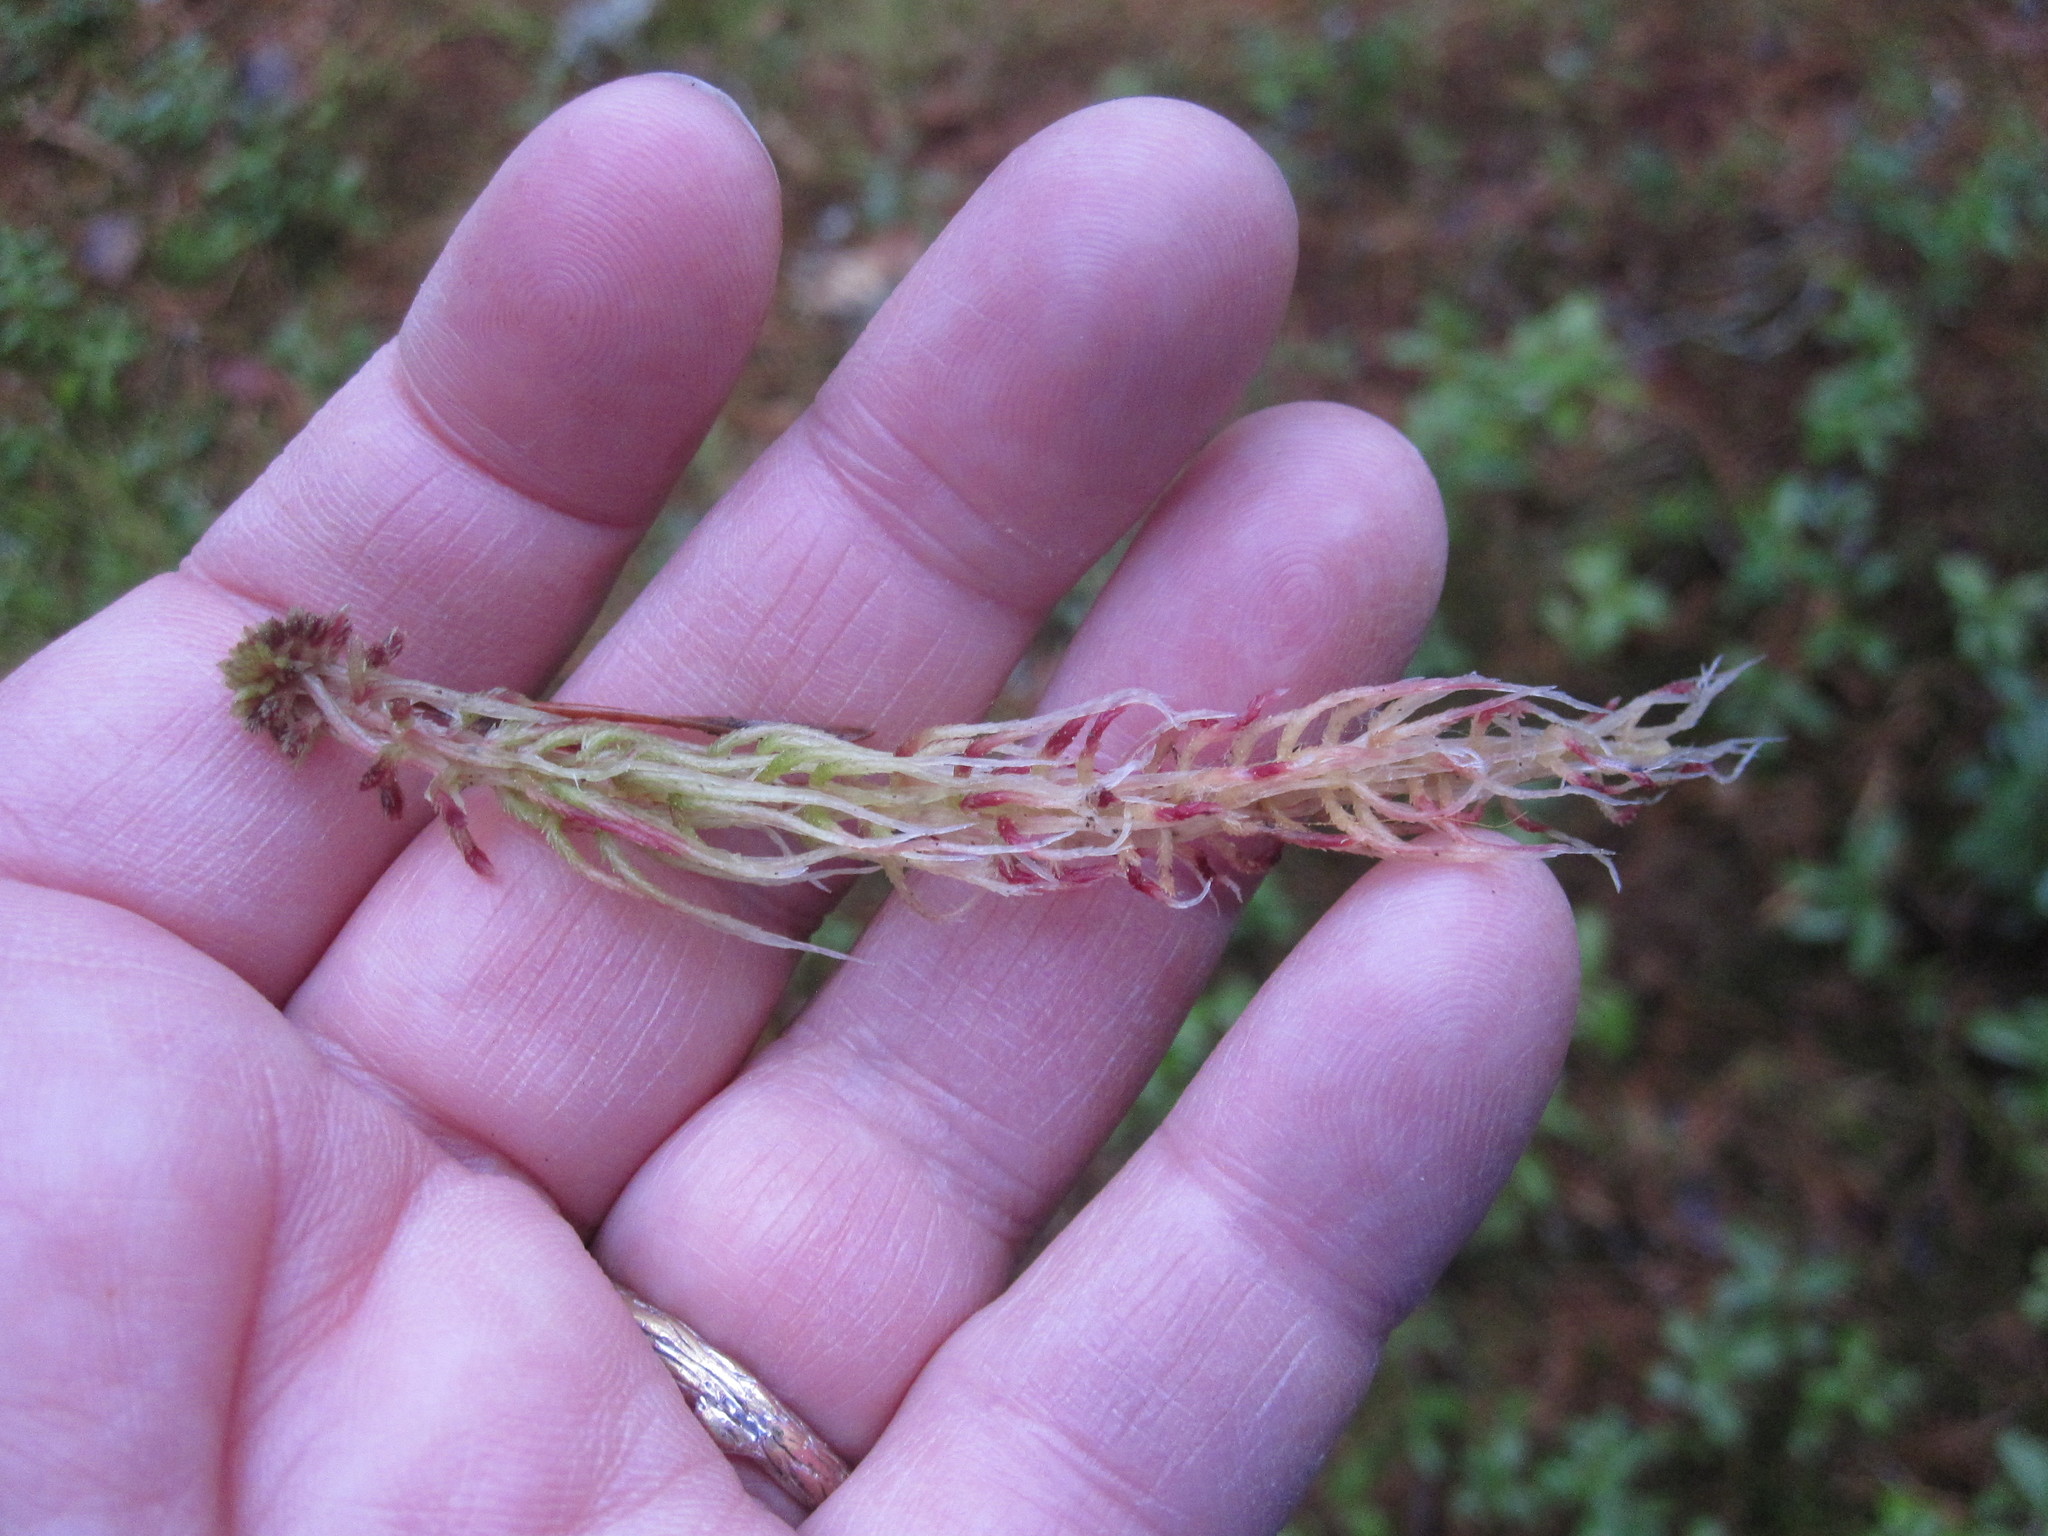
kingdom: Plantae
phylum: Bryophyta
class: Sphagnopsida
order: Sphagnales
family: Sphagnaceae
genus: Sphagnum
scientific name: Sphagnum capillifolium
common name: Small red peat moss
